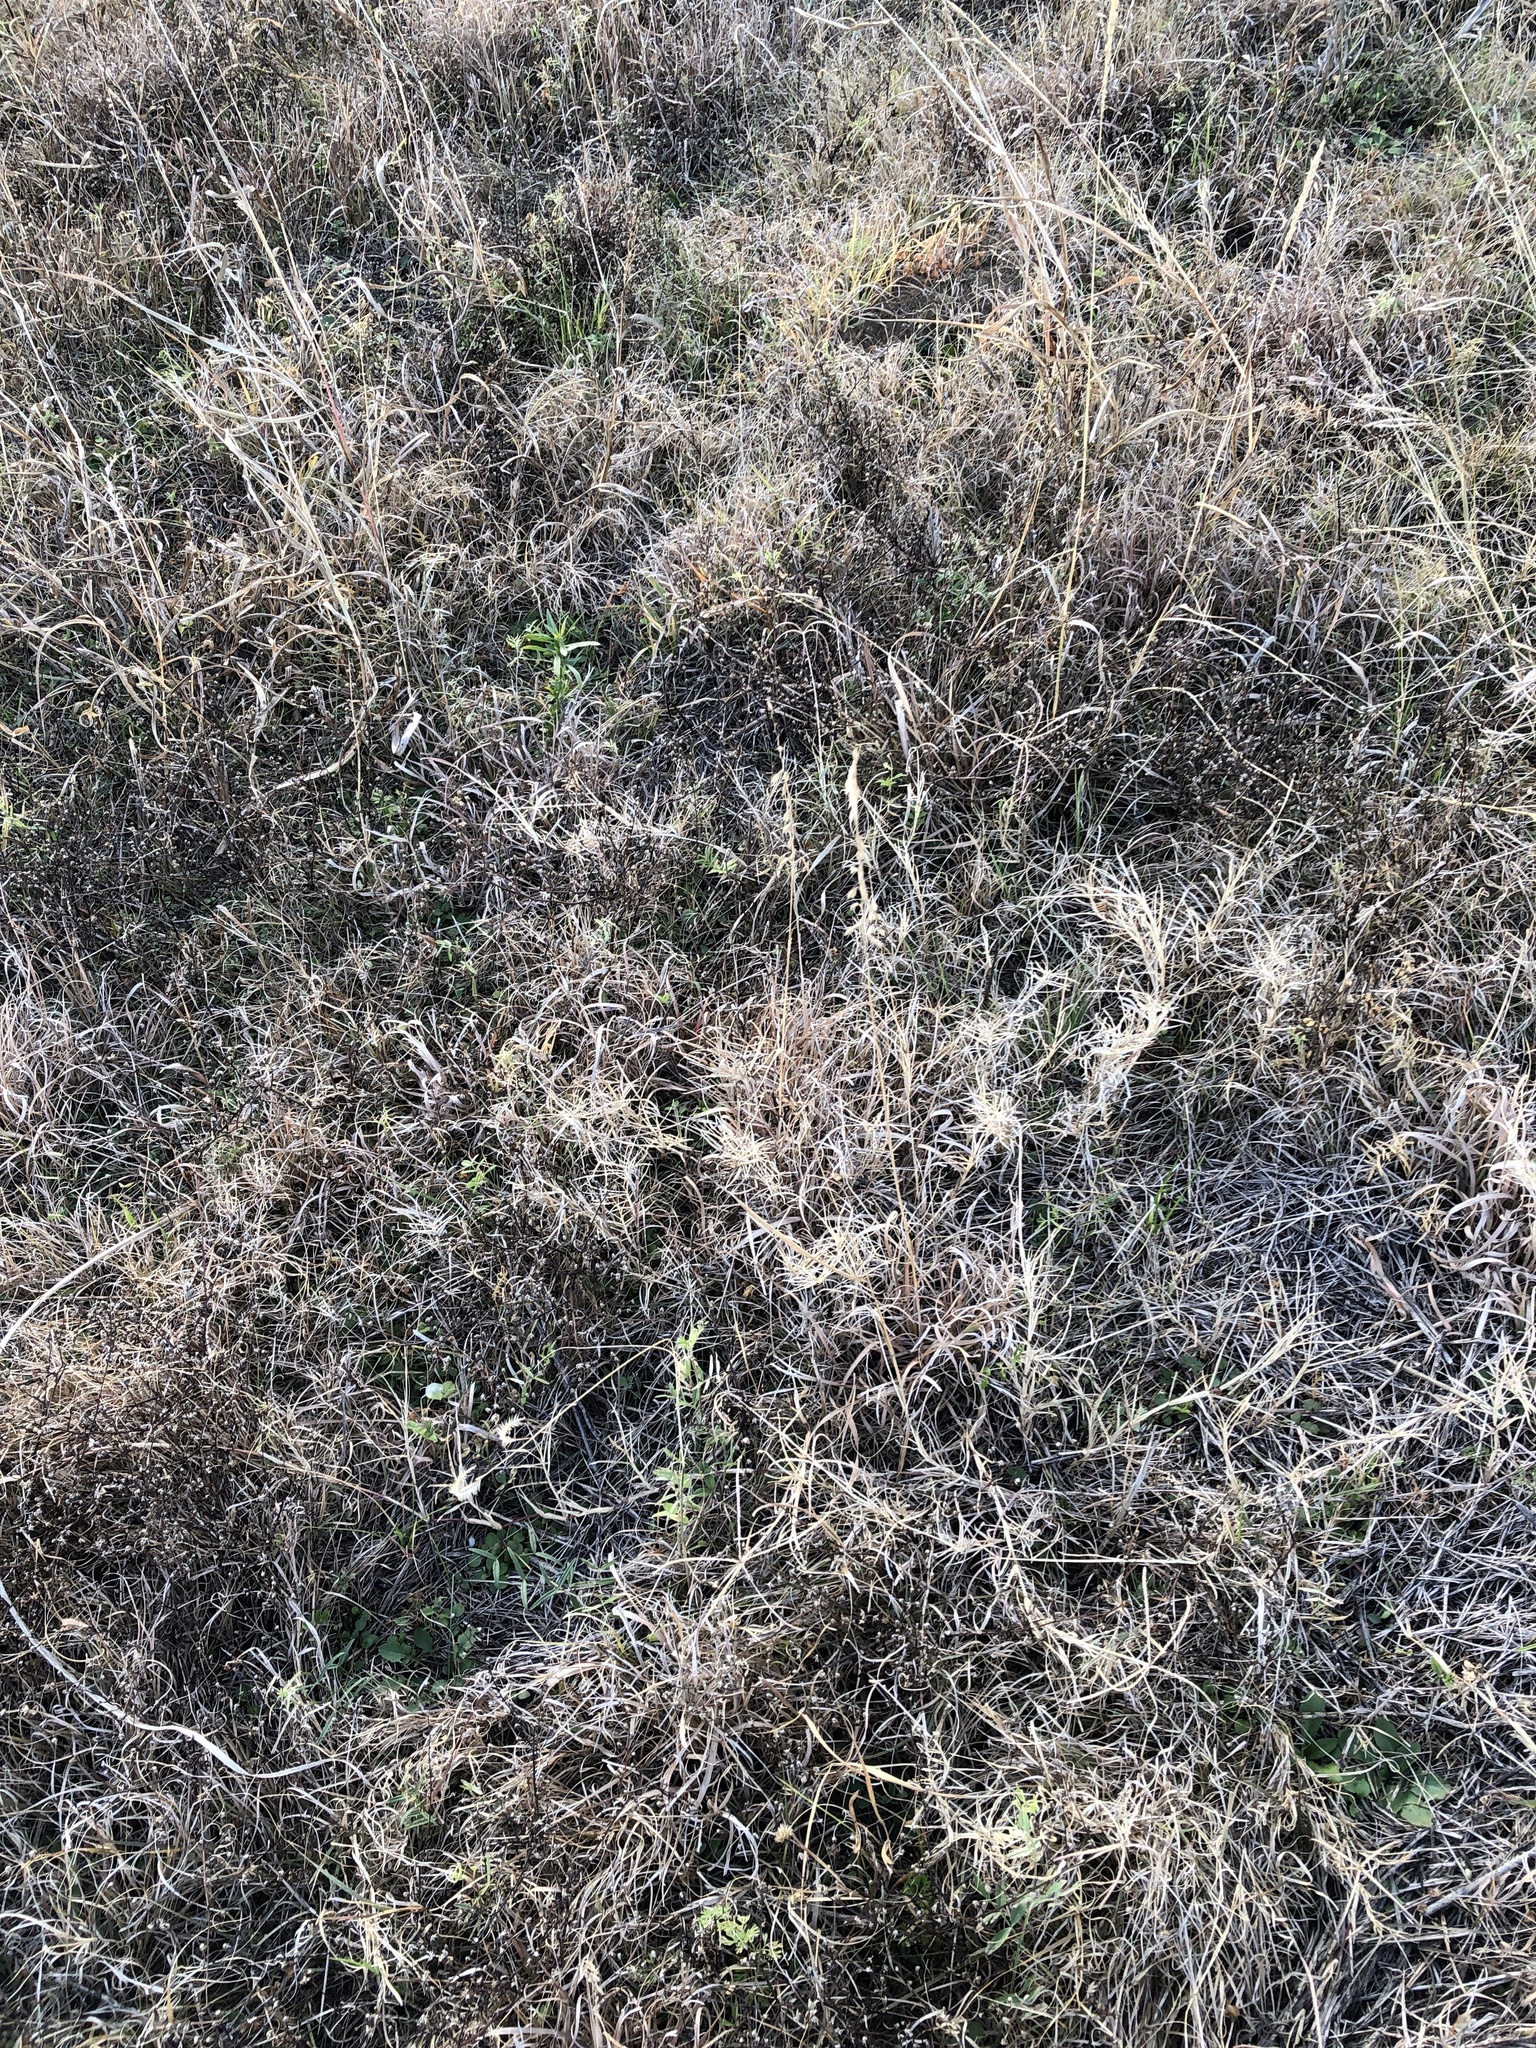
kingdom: Plantae
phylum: Tracheophyta
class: Liliopsida
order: Poales
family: Poaceae
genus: Bouteloua
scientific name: Bouteloua curtipendula
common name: Side-oats grama
